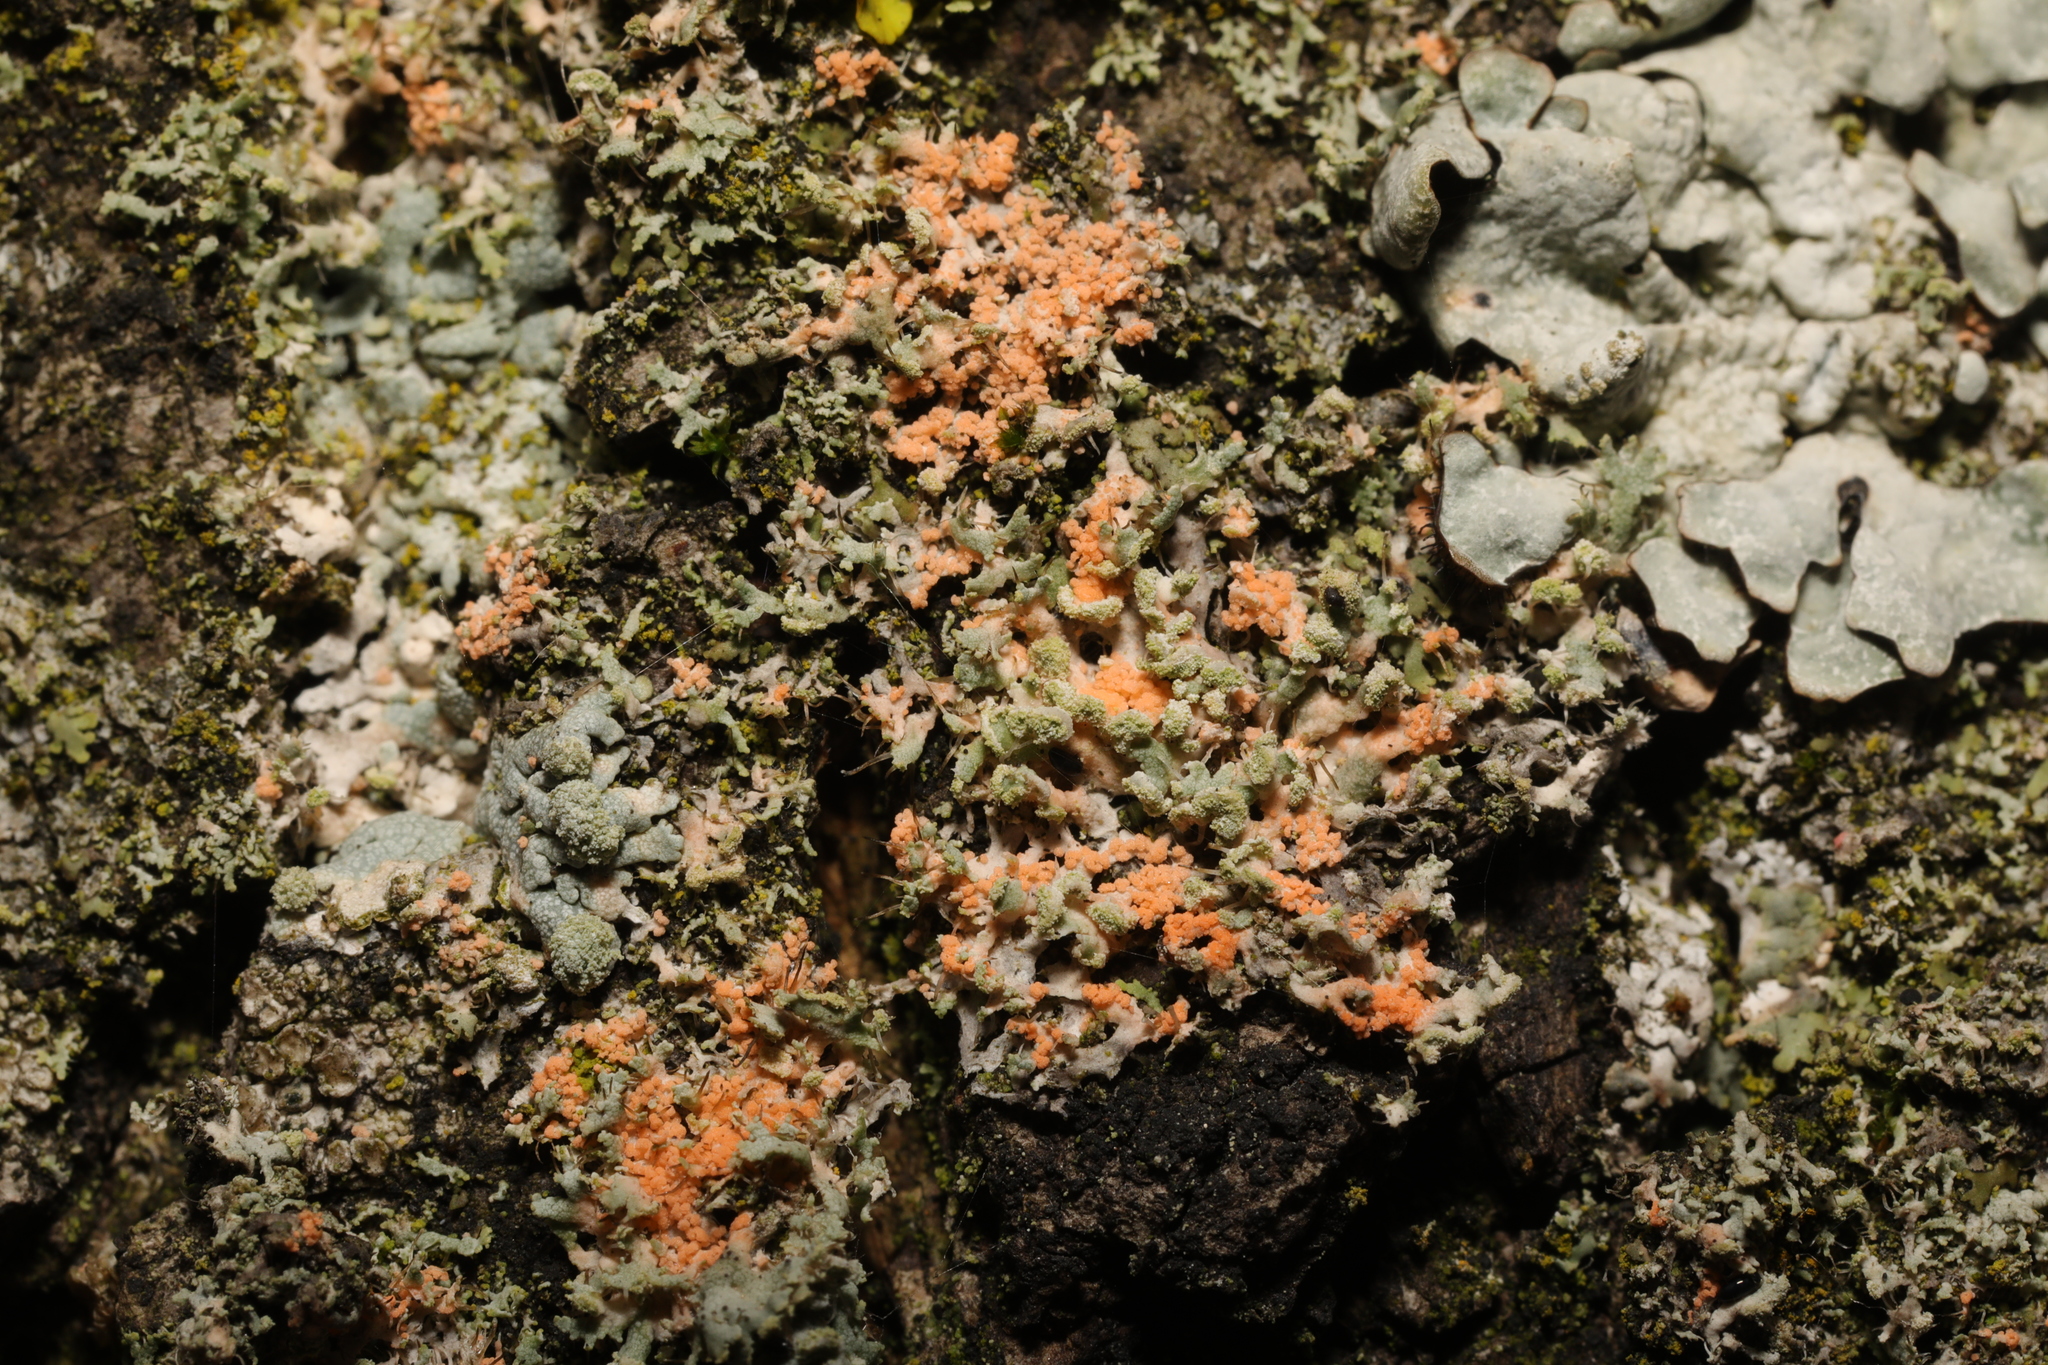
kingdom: Fungi
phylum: Basidiomycota
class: Agaricomycetes
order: Corticiales
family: Corticiaceae
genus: Erythricium
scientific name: Erythricium aurantiacum
